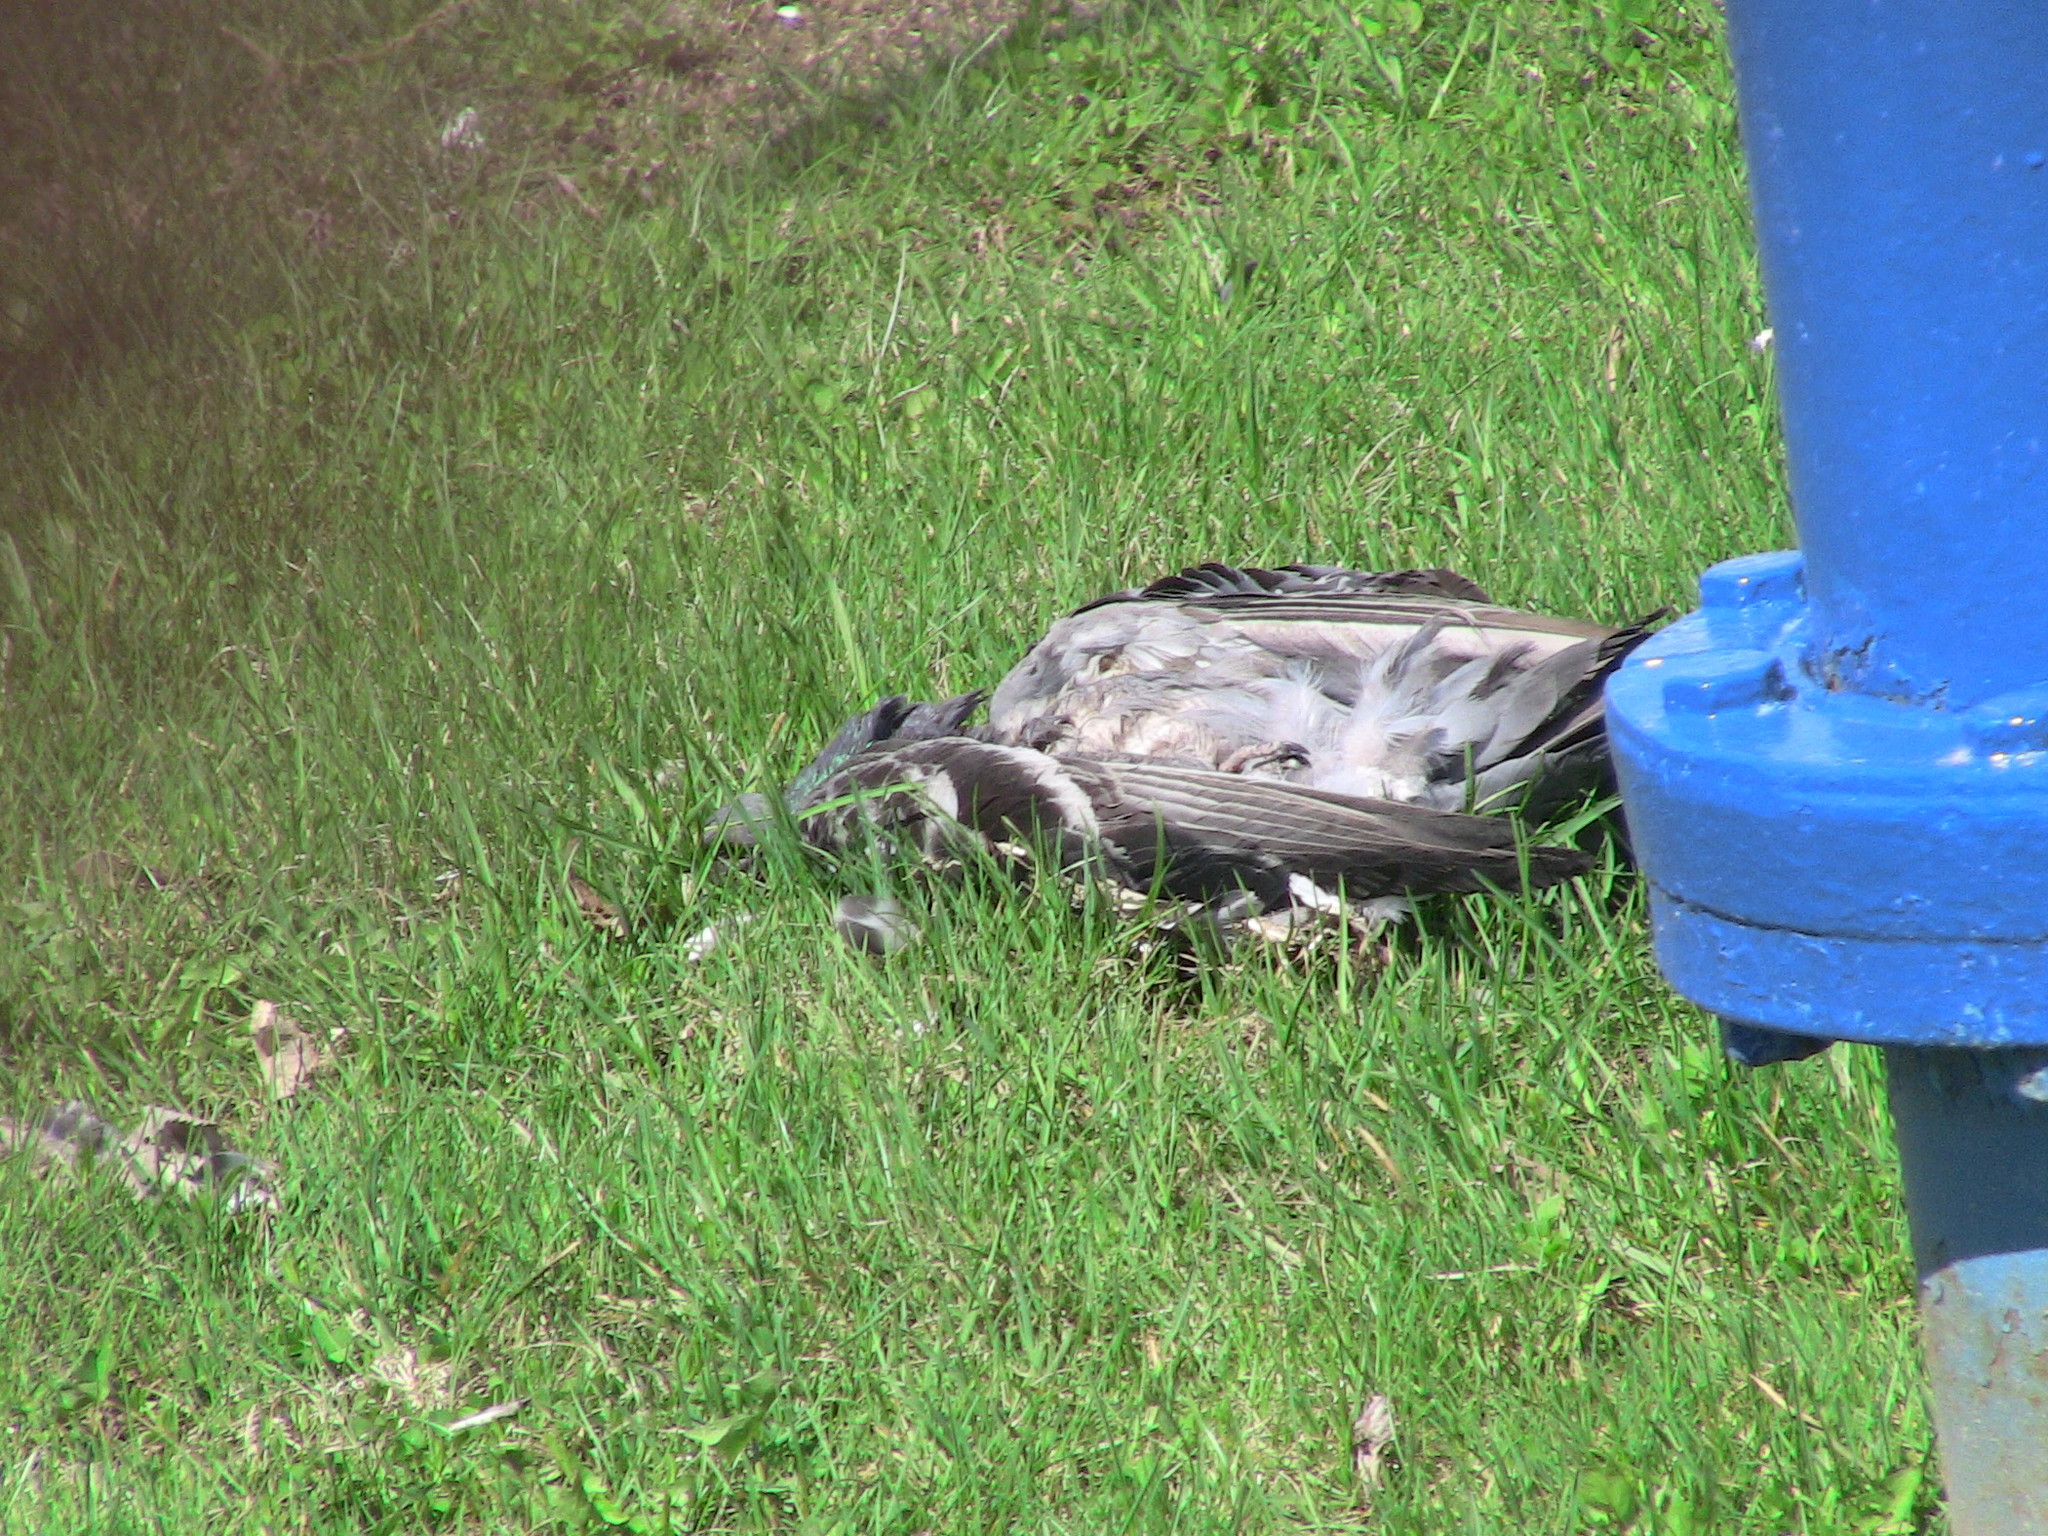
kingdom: Animalia
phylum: Chordata
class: Aves
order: Columbiformes
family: Columbidae
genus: Columba
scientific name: Columba livia
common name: Rock pigeon
